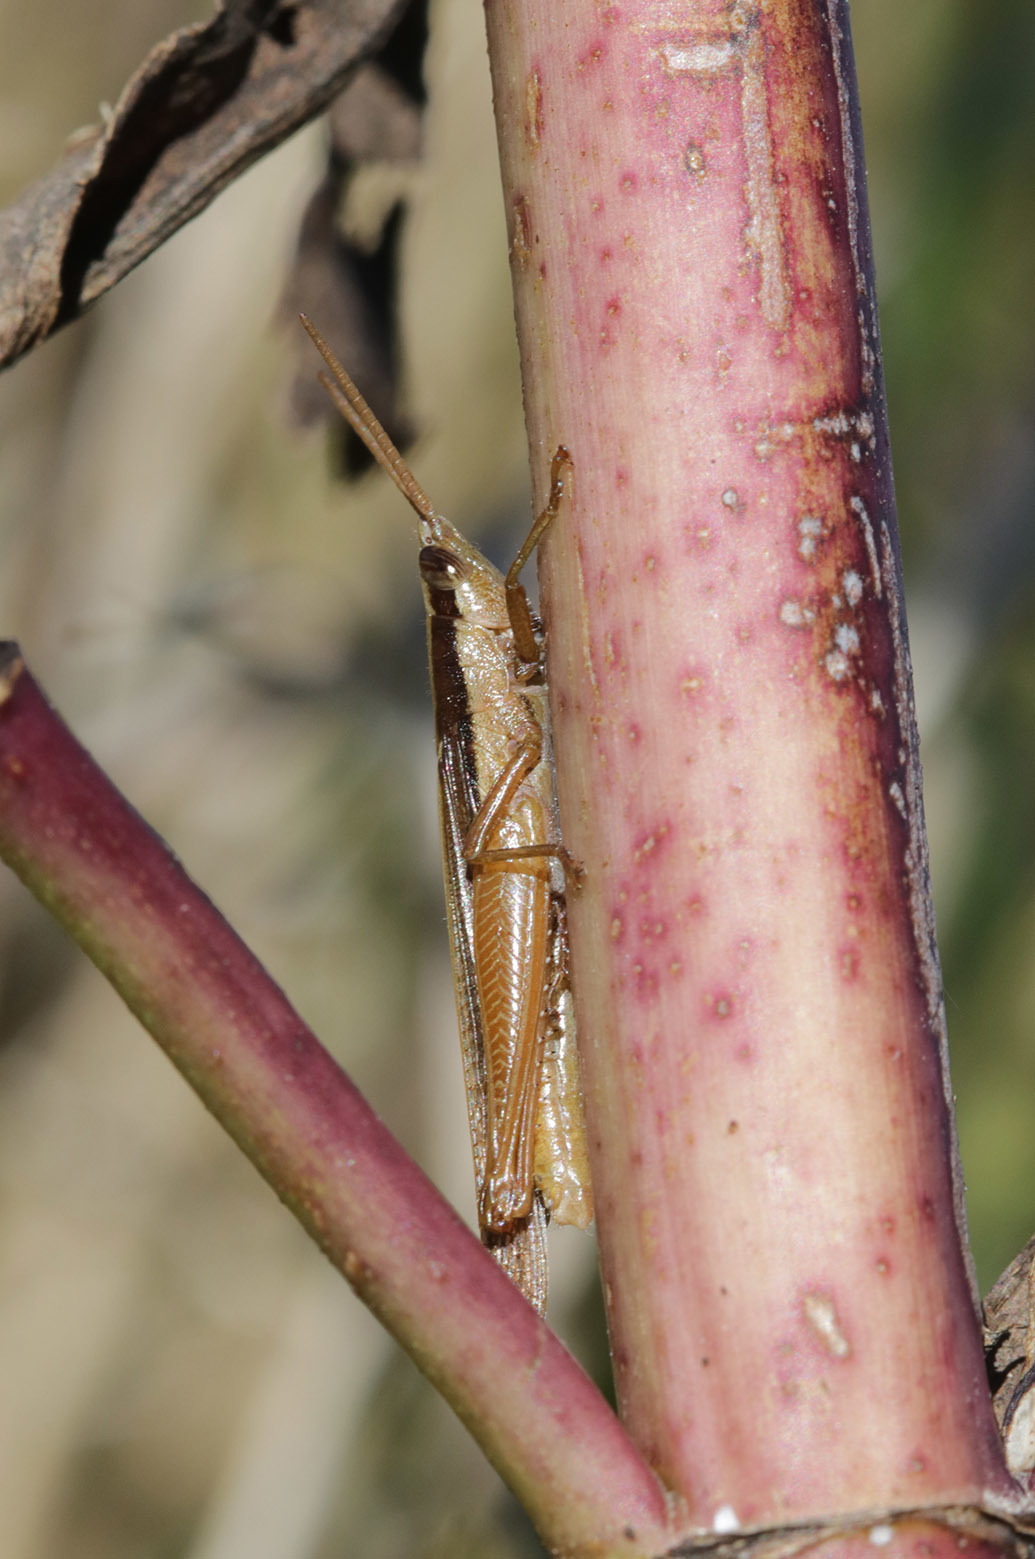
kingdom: Animalia
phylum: Arthropoda
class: Insecta
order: Orthoptera
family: Acrididae
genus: Stenopola
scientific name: Stenopola pallida
